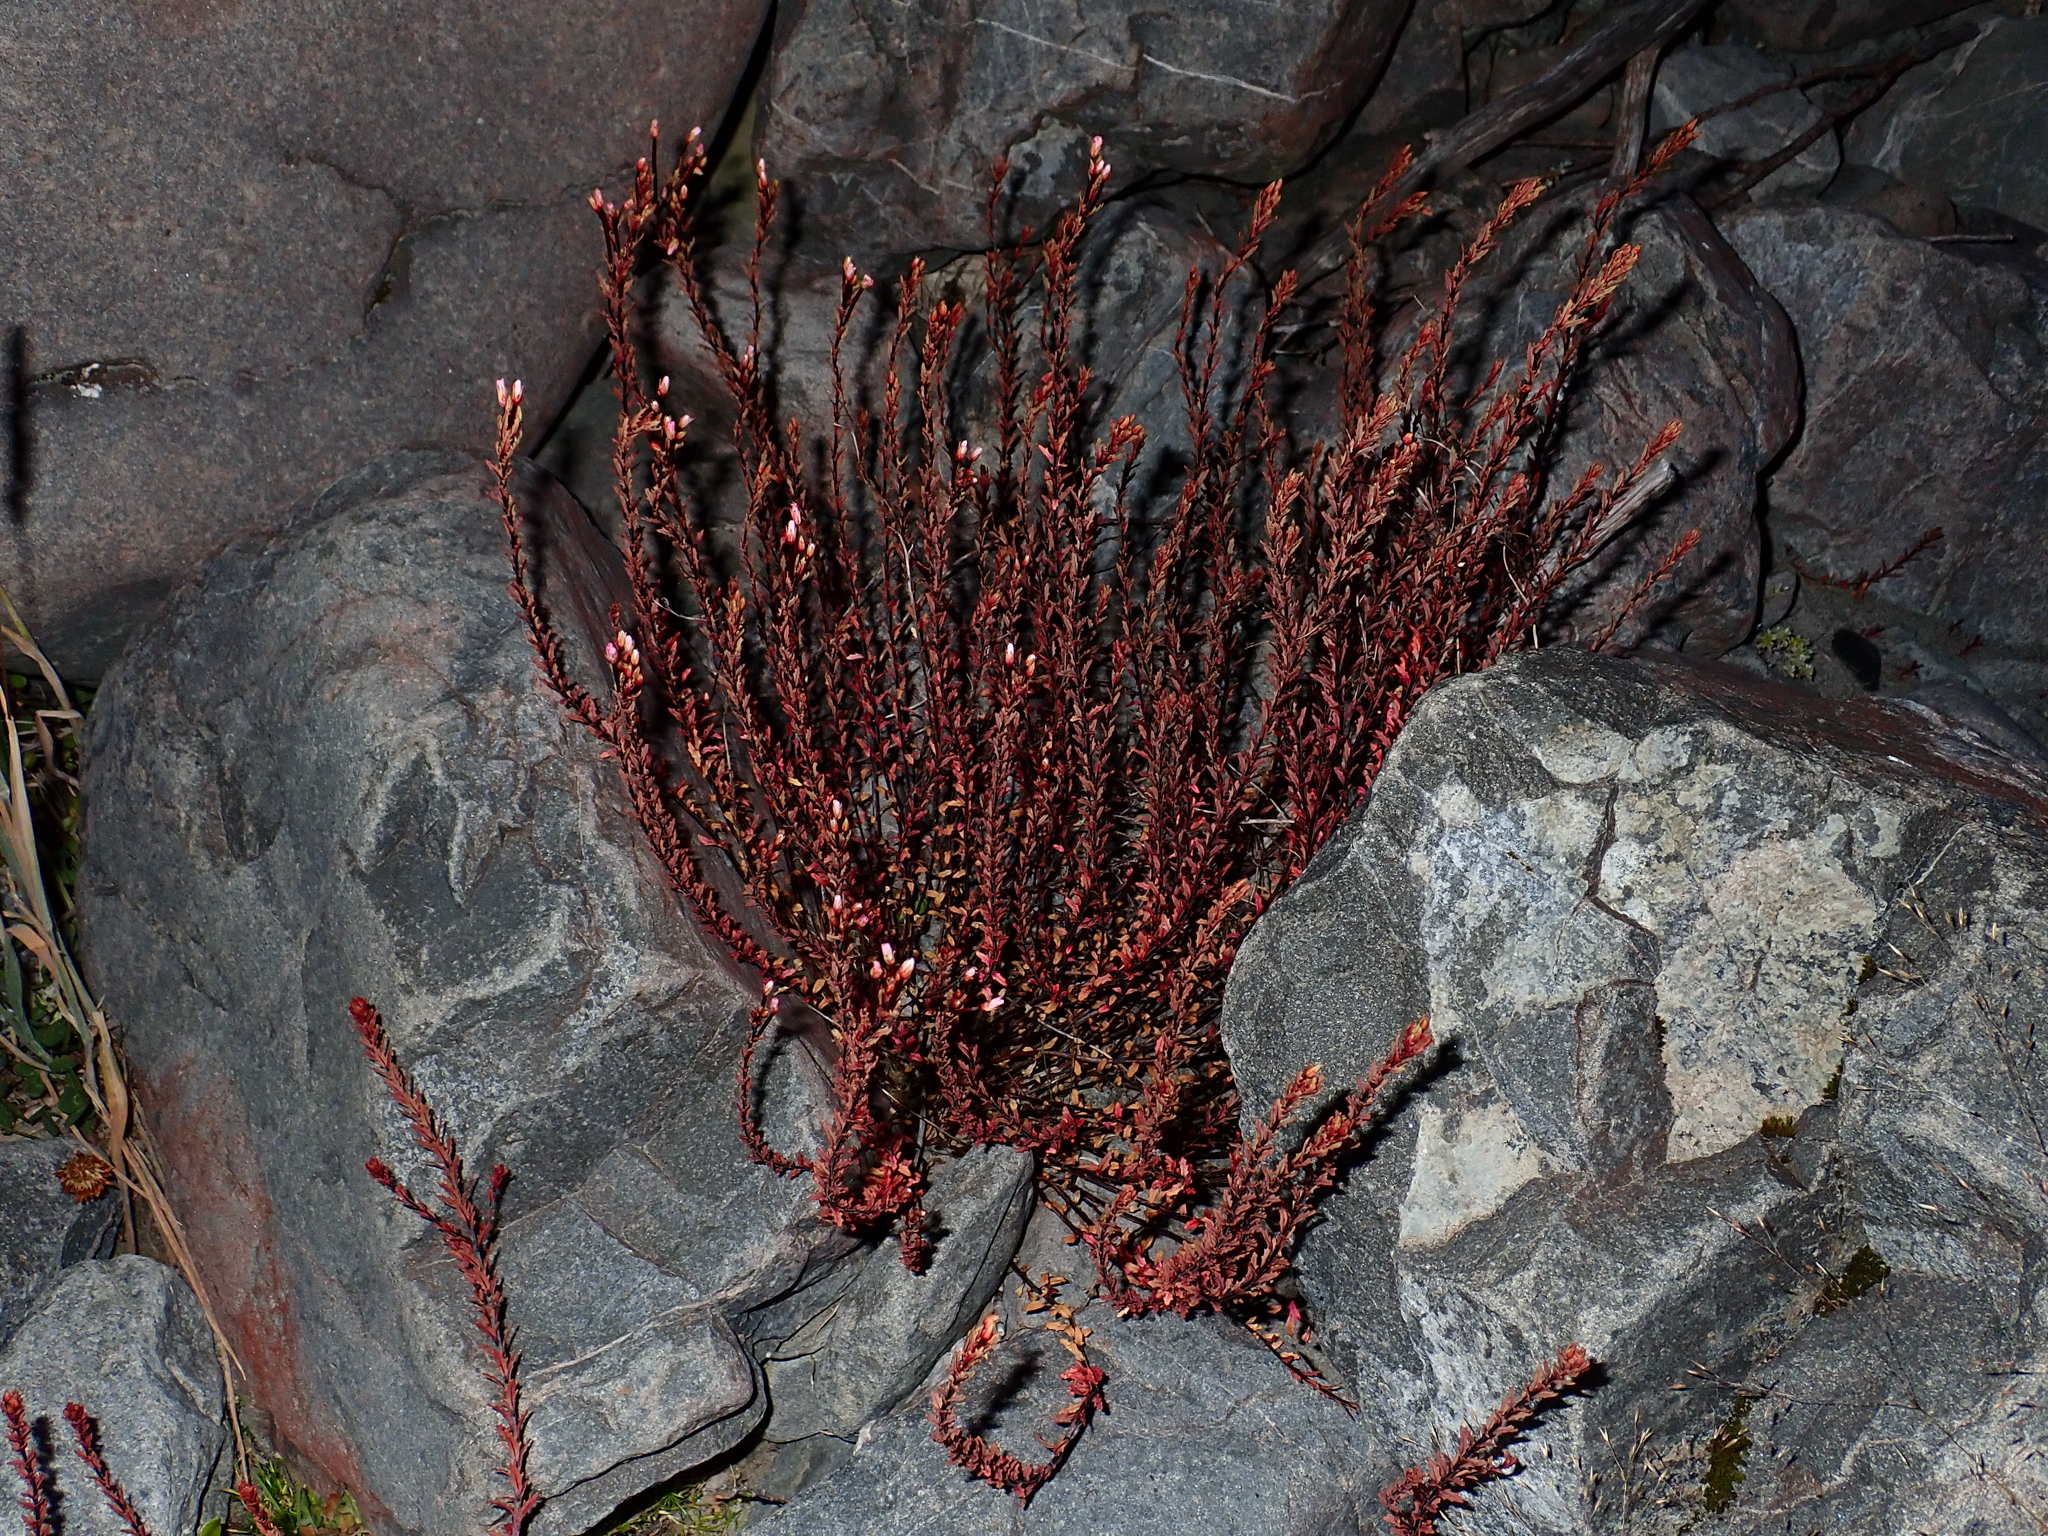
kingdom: Plantae
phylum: Tracheophyta
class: Magnoliopsida
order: Myrtales
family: Onagraceae
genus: Epilobium
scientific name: Epilobium melanocaulon
